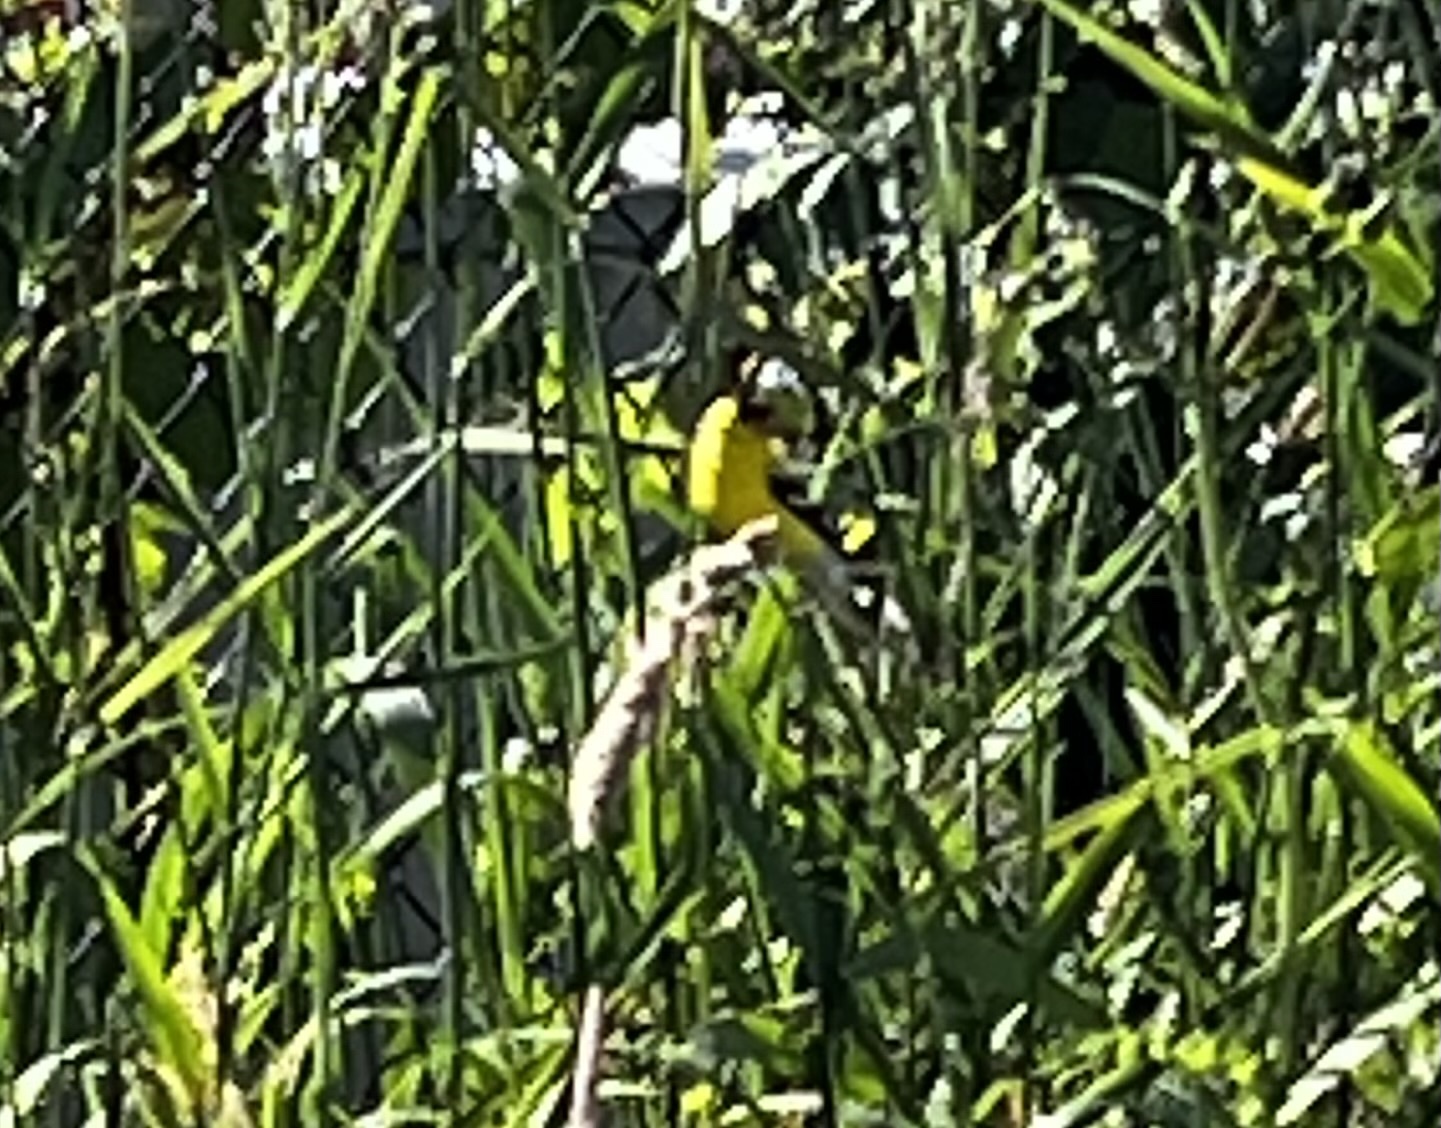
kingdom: Animalia
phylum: Chordata
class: Aves
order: Passeriformes
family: Fringillidae
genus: Spinus
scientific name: Spinus tristis
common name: American goldfinch
